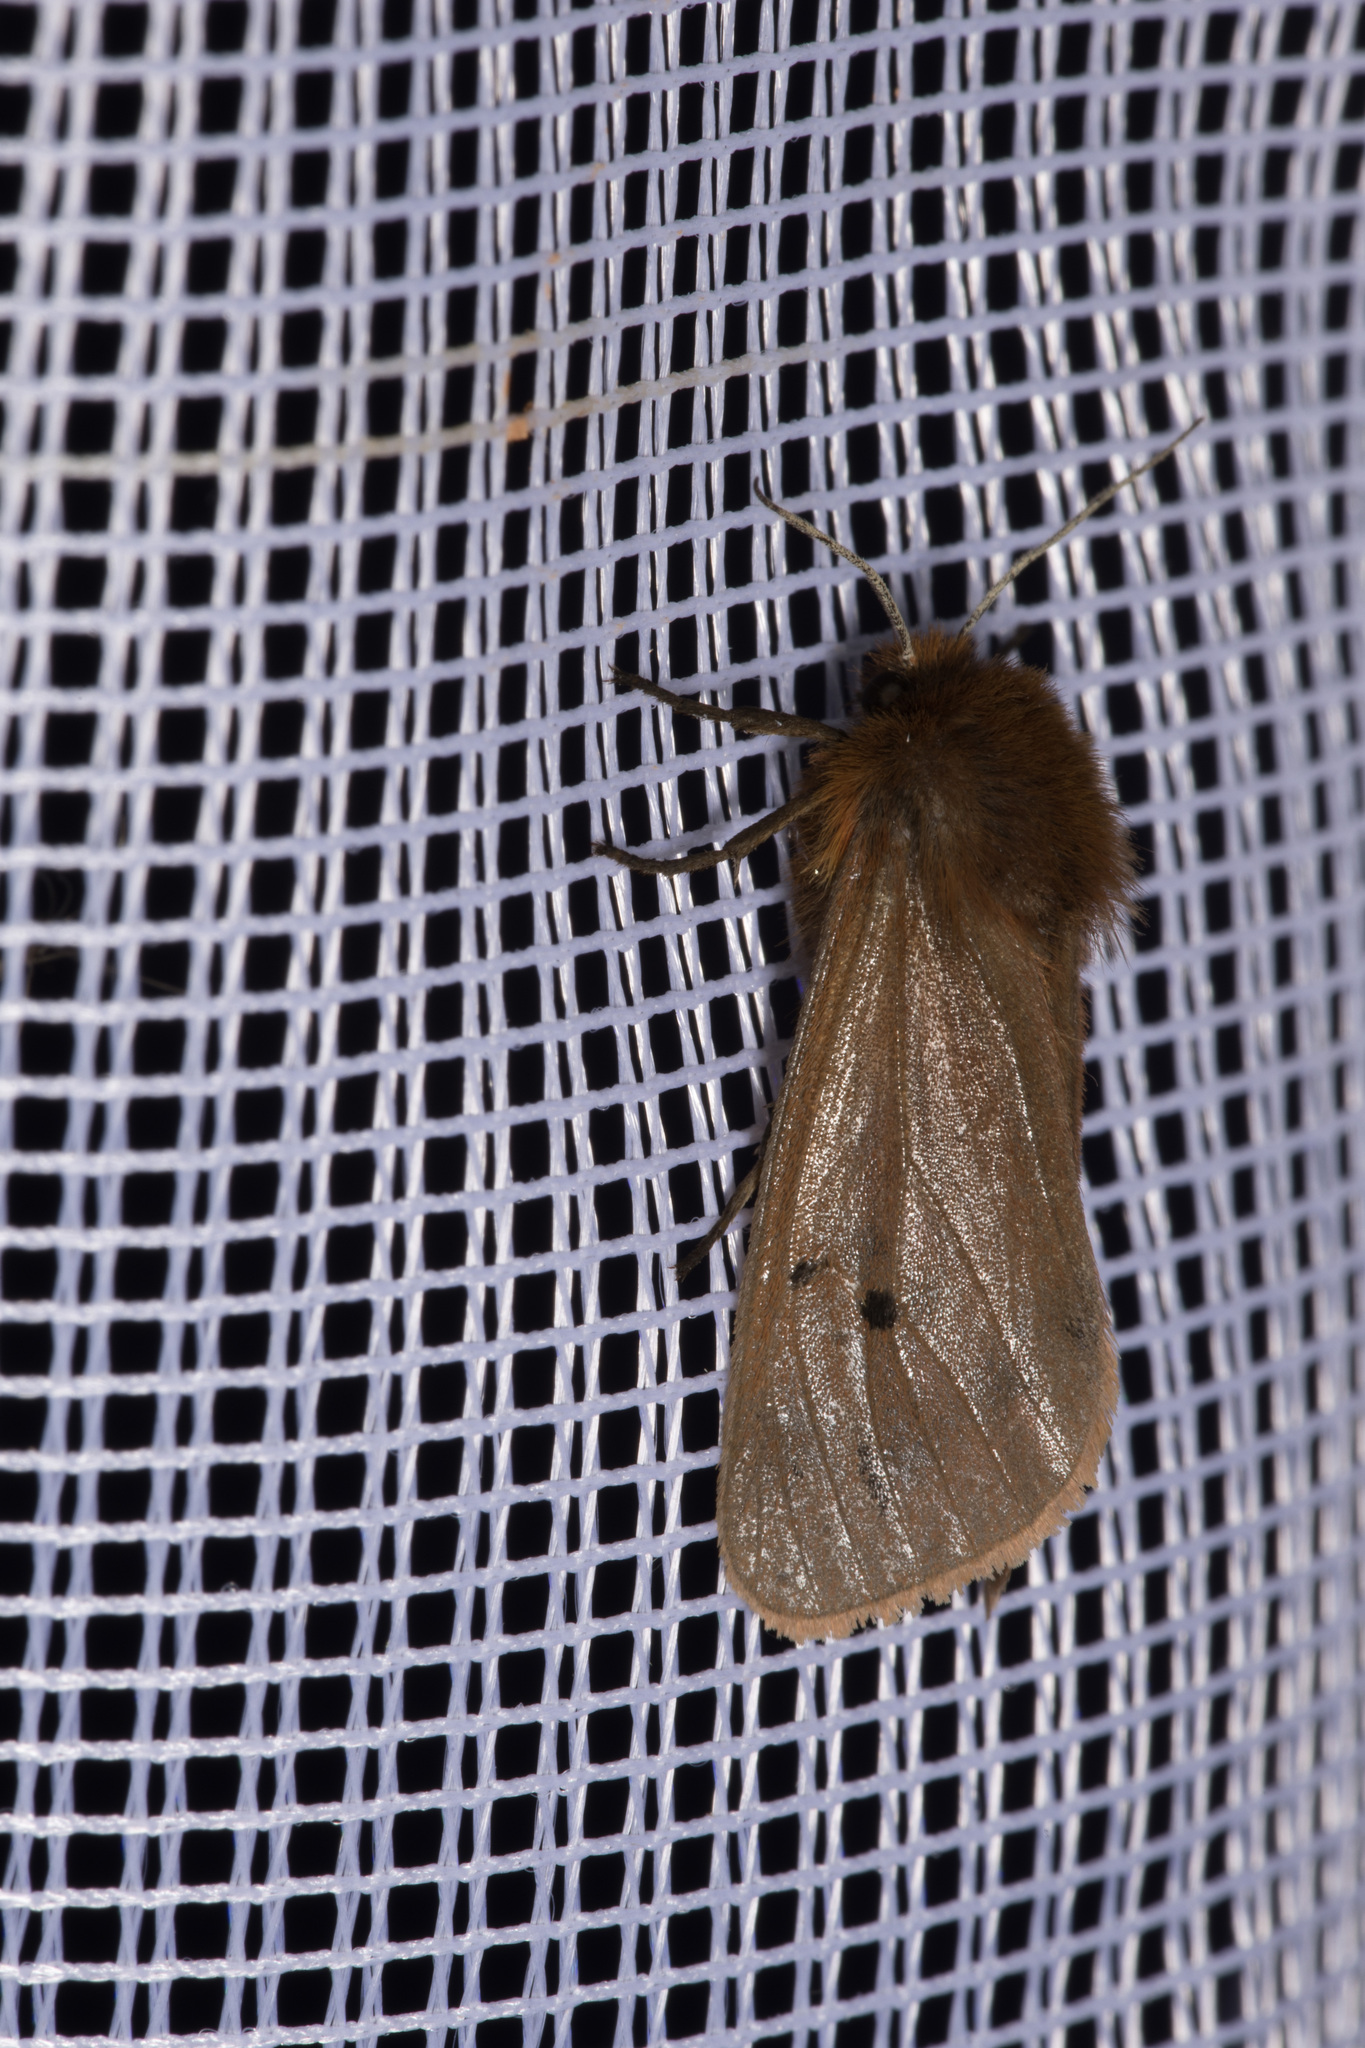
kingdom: Animalia
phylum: Arthropoda
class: Insecta
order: Lepidoptera
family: Erebidae
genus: Phragmatobia
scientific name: Phragmatobia fuliginosa
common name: Ruby tiger
